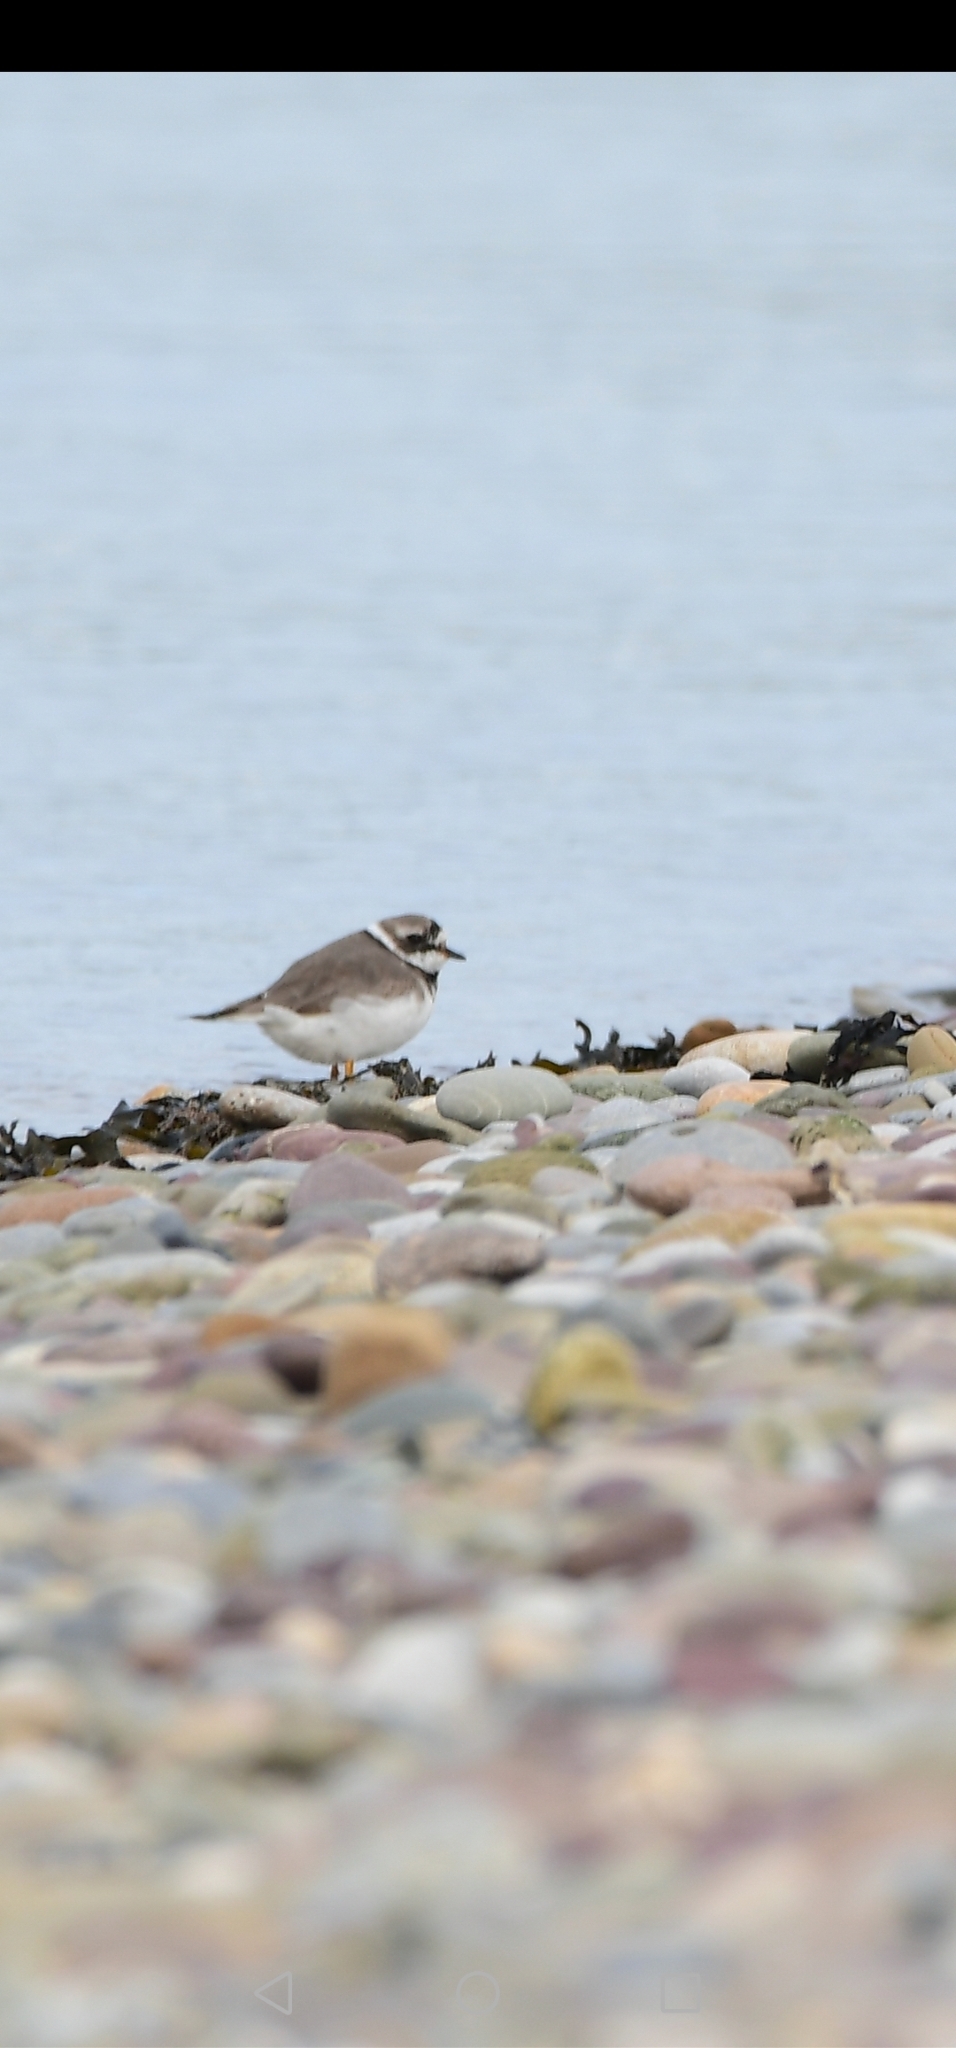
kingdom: Animalia
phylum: Chordata
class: Aves
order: Charadriiformes
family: Charadriidae
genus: Charadrius
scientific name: Charadrius hiaticula
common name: Common ringed plover
